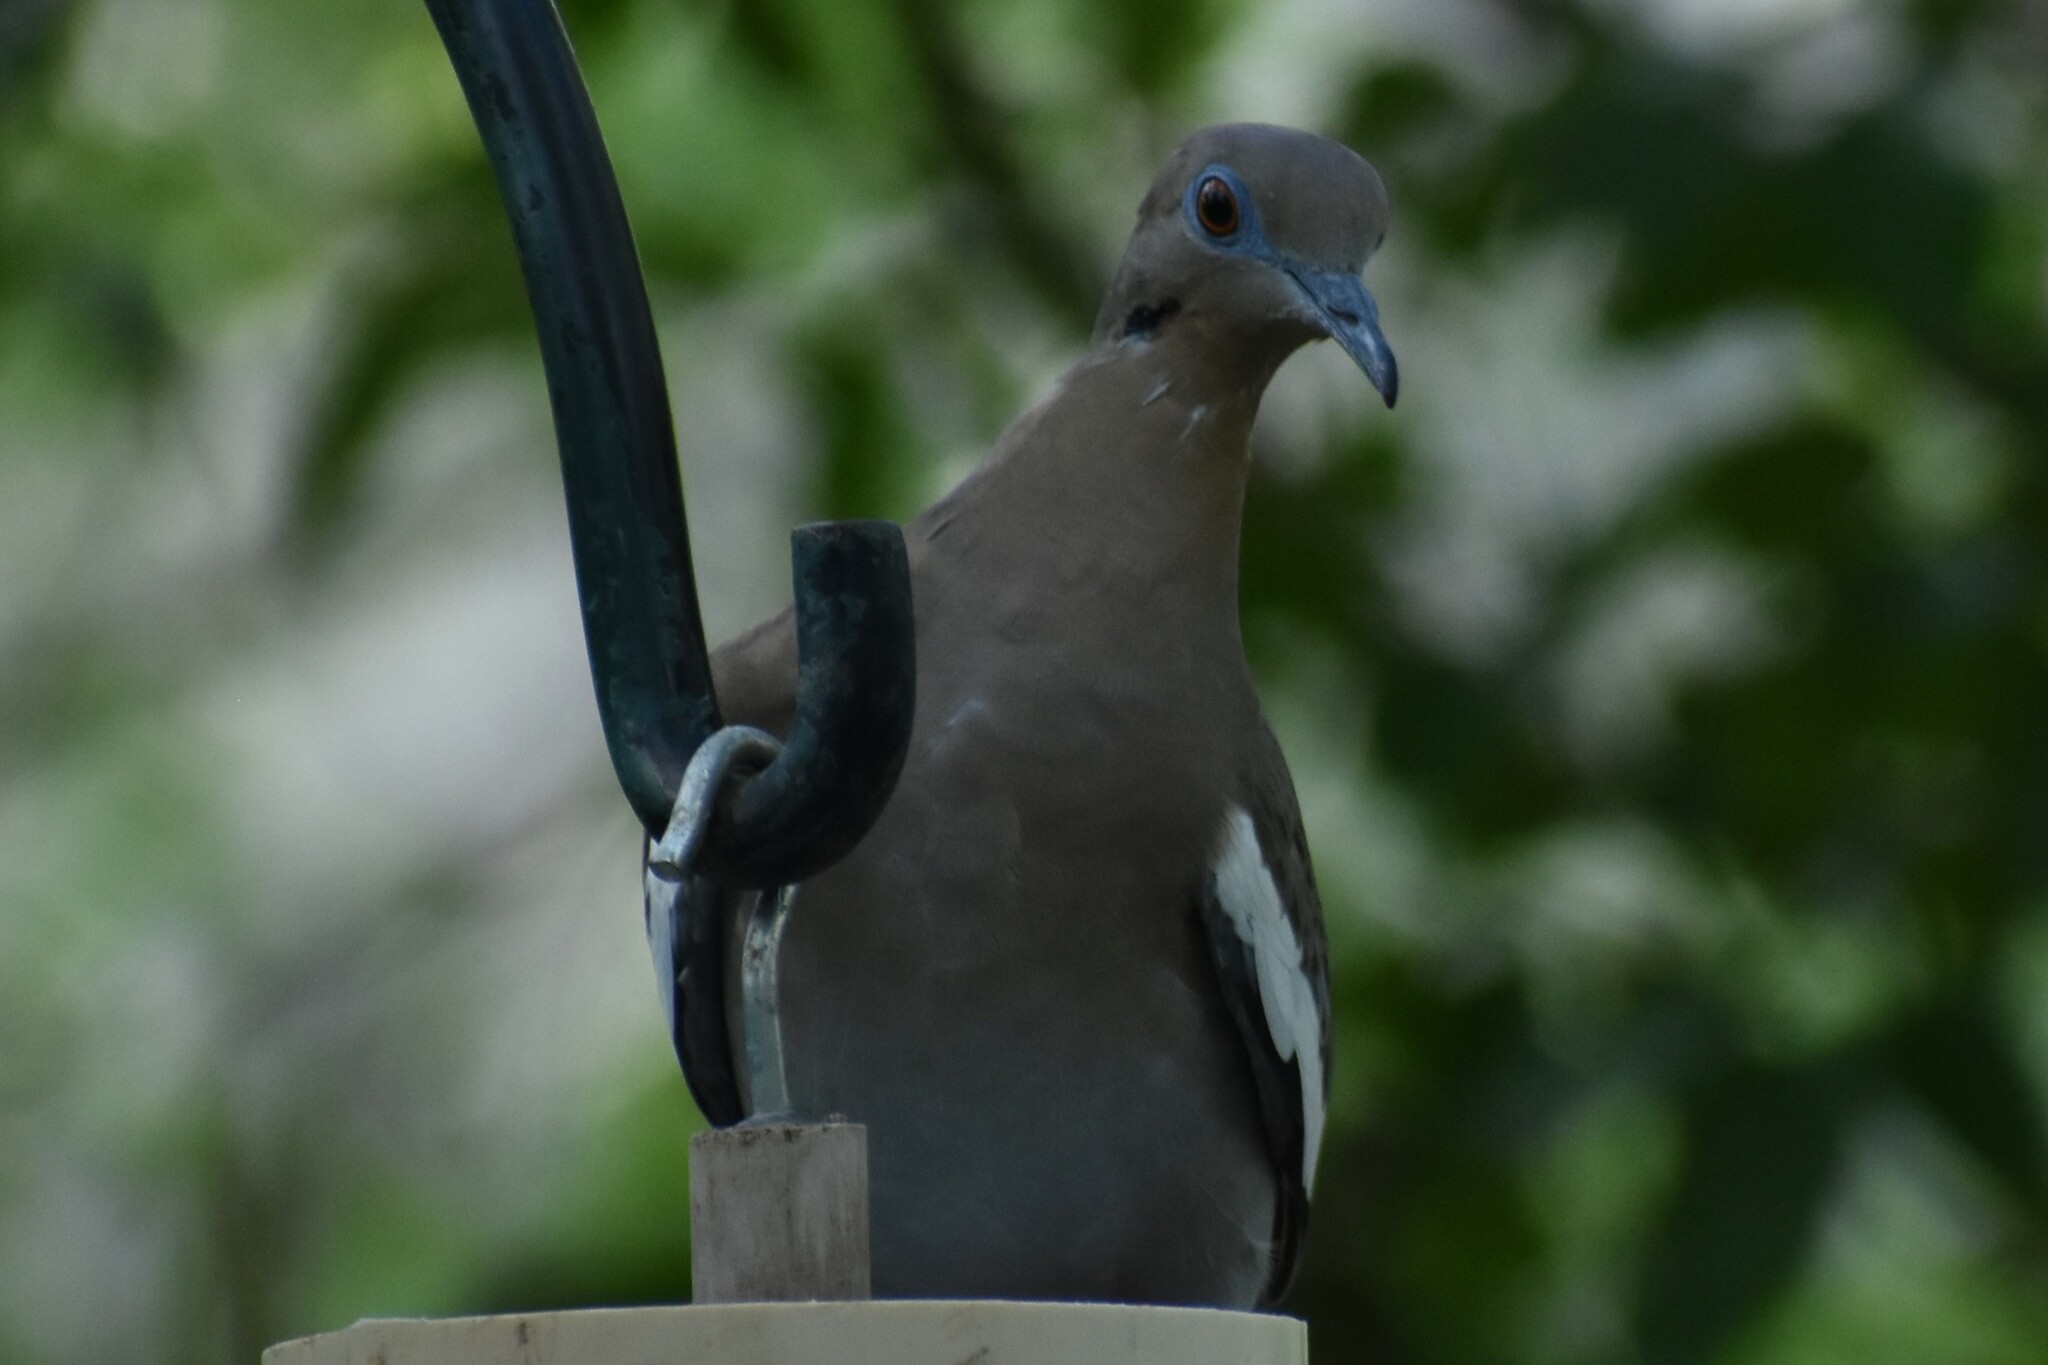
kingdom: Animalia
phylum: Chordata
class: Aves
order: Columbiformes
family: Columbidae
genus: Zenaida
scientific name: Zenaida asiatica
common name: White-winged dove
